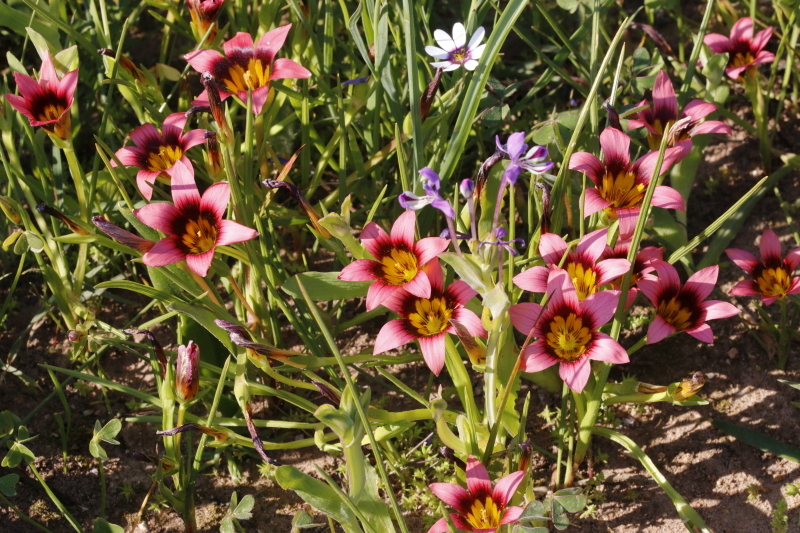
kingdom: Plantae
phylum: Tracheophyta
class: Liliopsida
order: Asparagales
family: Iridaceae
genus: Romulea
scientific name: Romulea hirsuta
